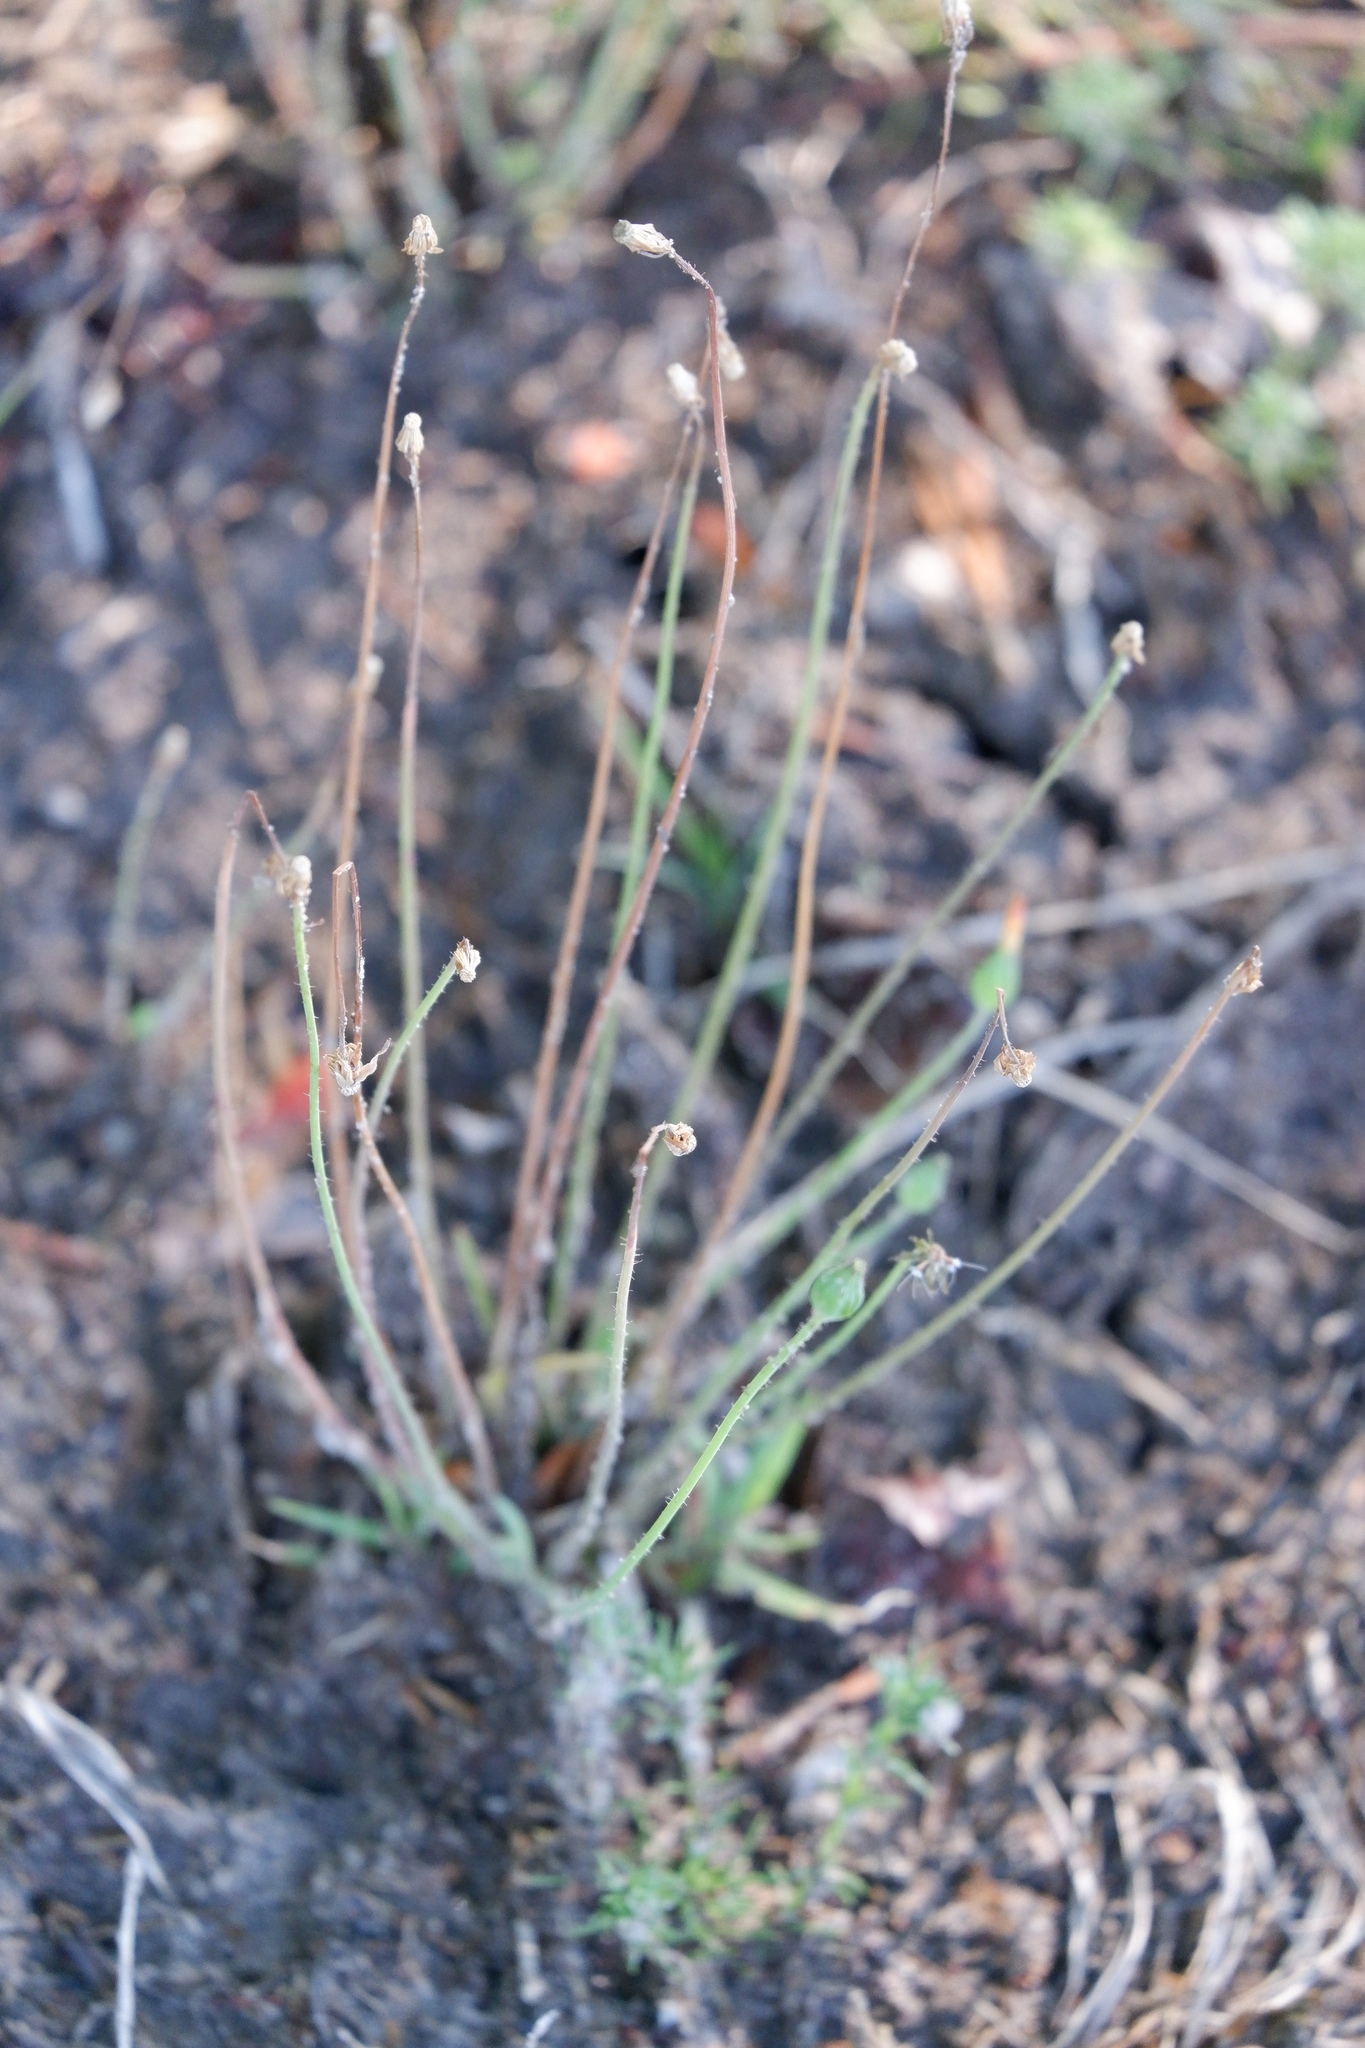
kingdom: Plantae
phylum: Tracheophyta
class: Magnoliopsida
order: Asterales
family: Asteraceae
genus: Krigia
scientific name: Krigia virginica
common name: Virginia dwarf-dandelion
